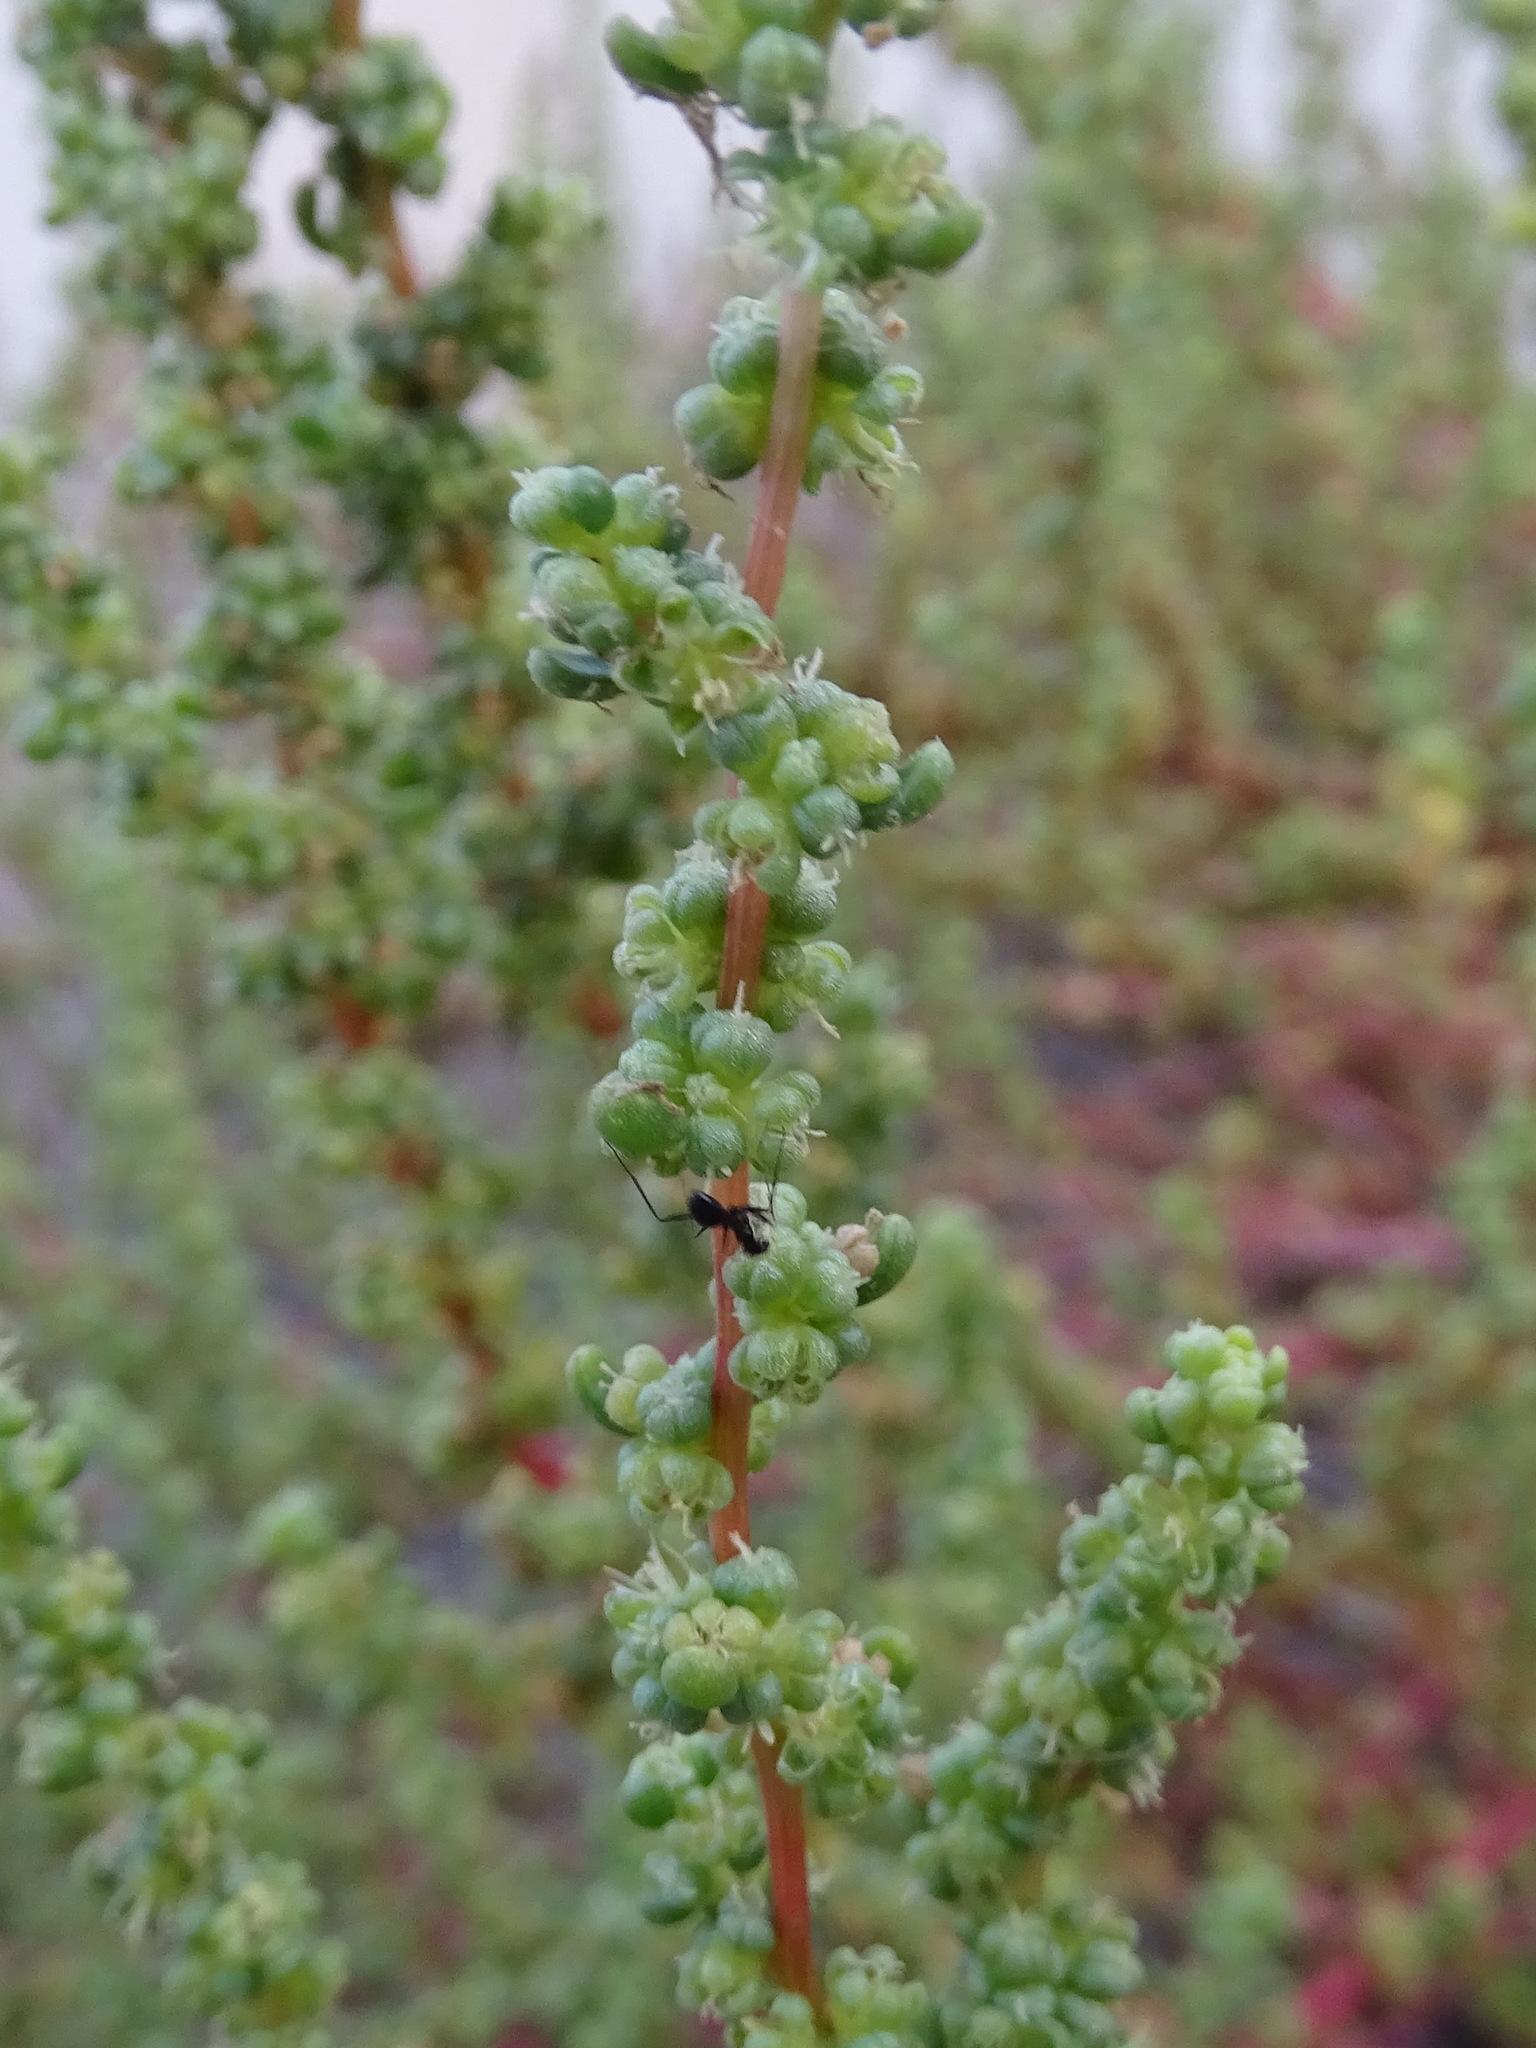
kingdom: Plantae
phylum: Tracheophyta
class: Magnoliopsida
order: Caryophyllales
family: Amaranthaceae
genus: Suaeda
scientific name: Suaeda aegyptiaca
